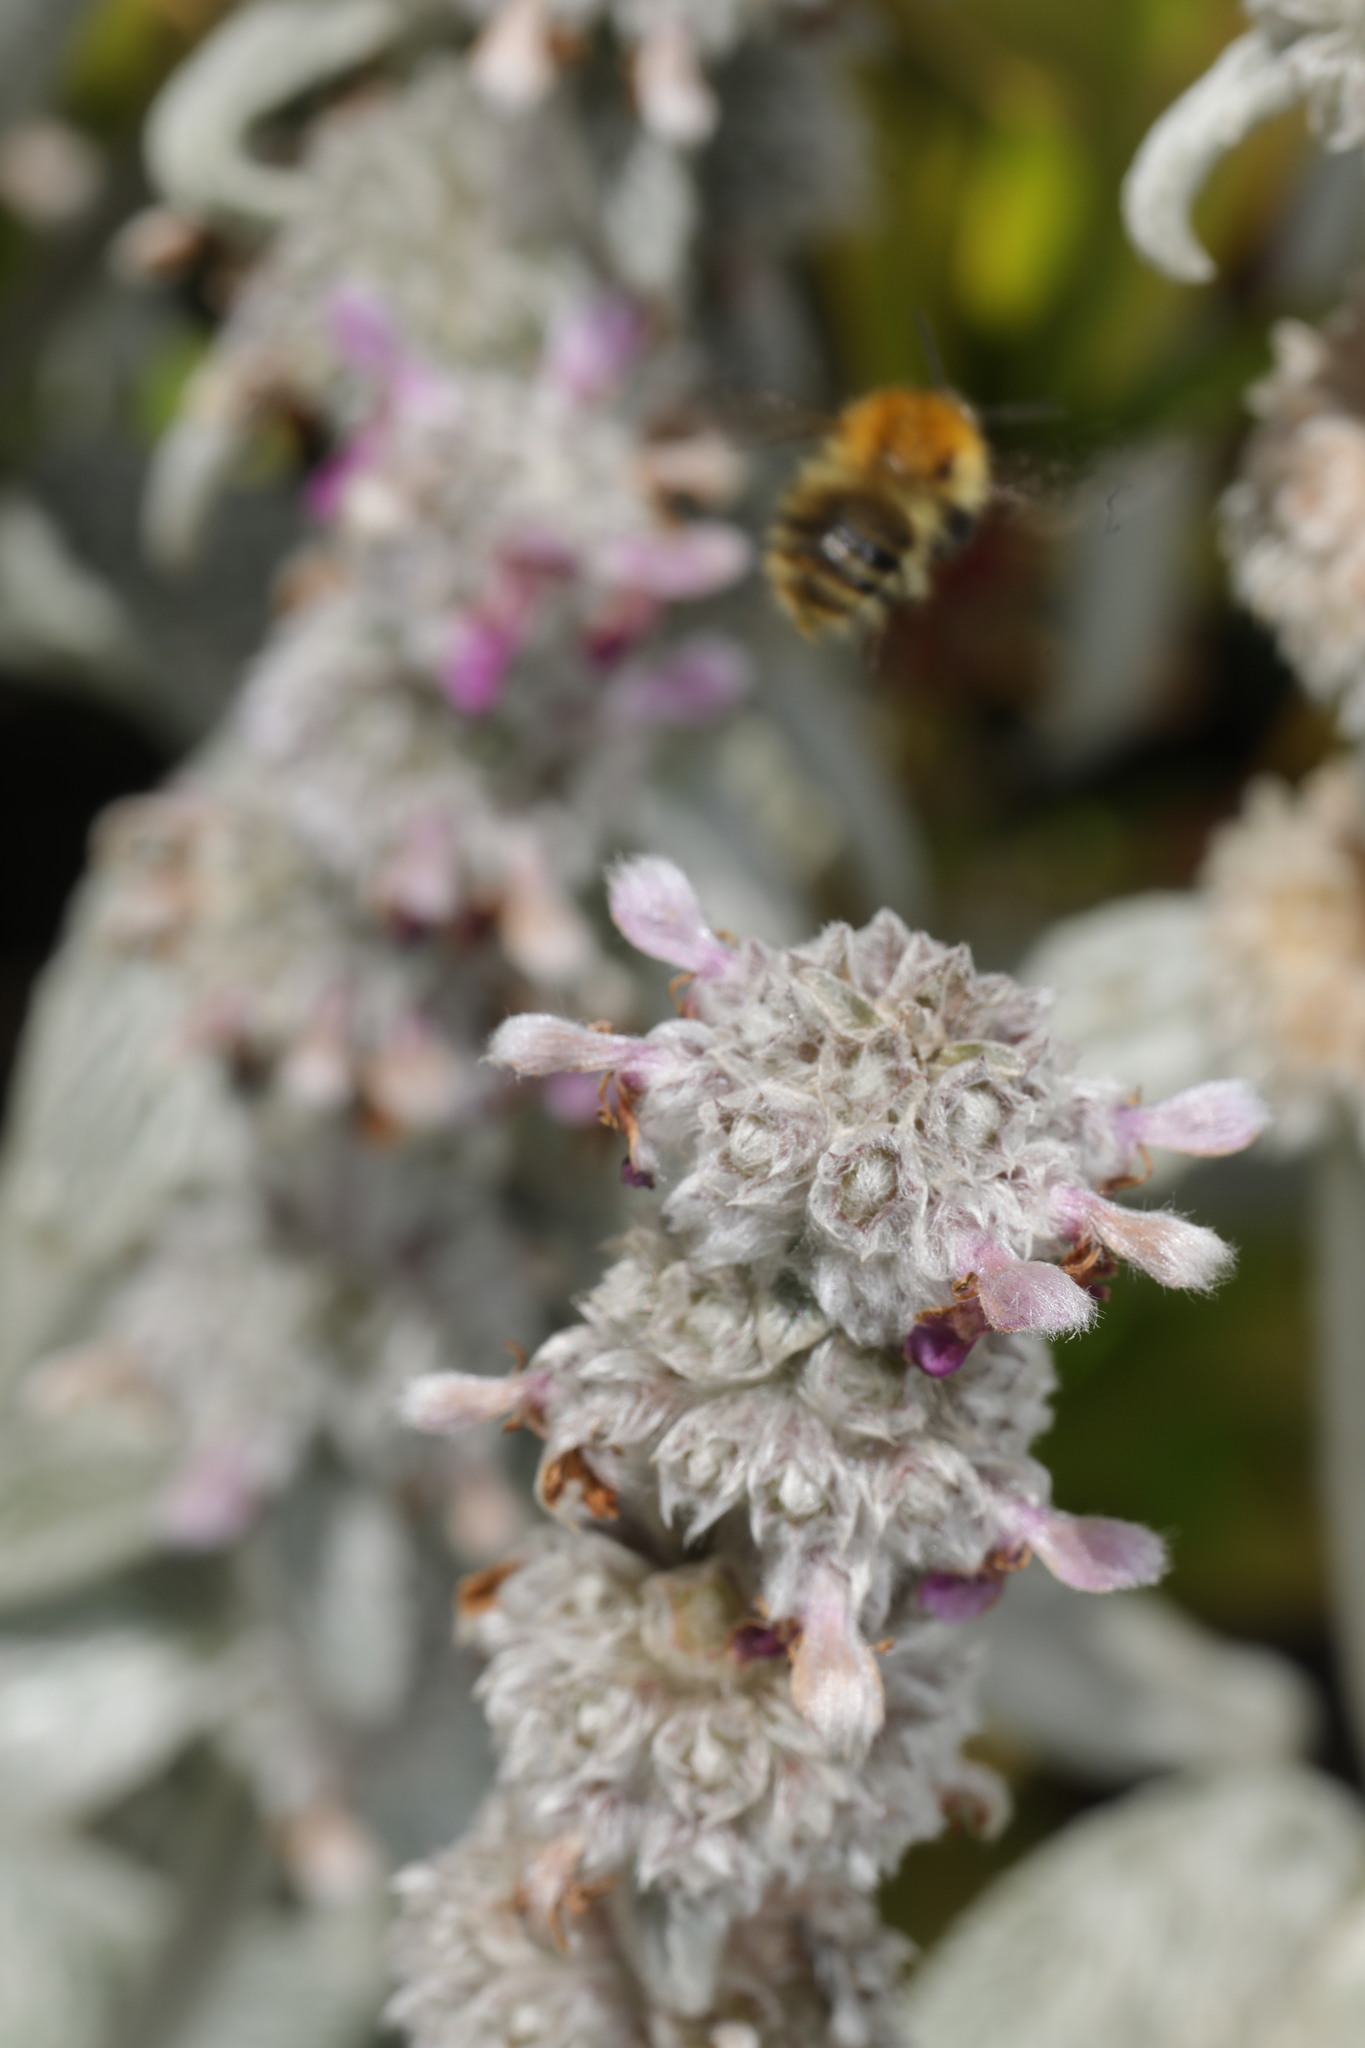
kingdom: Animalia
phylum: Arthropoda
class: Insecta
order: Hymenoptera
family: Apidae
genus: Bombus
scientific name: Bombus pascuorum
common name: Common carder bee
